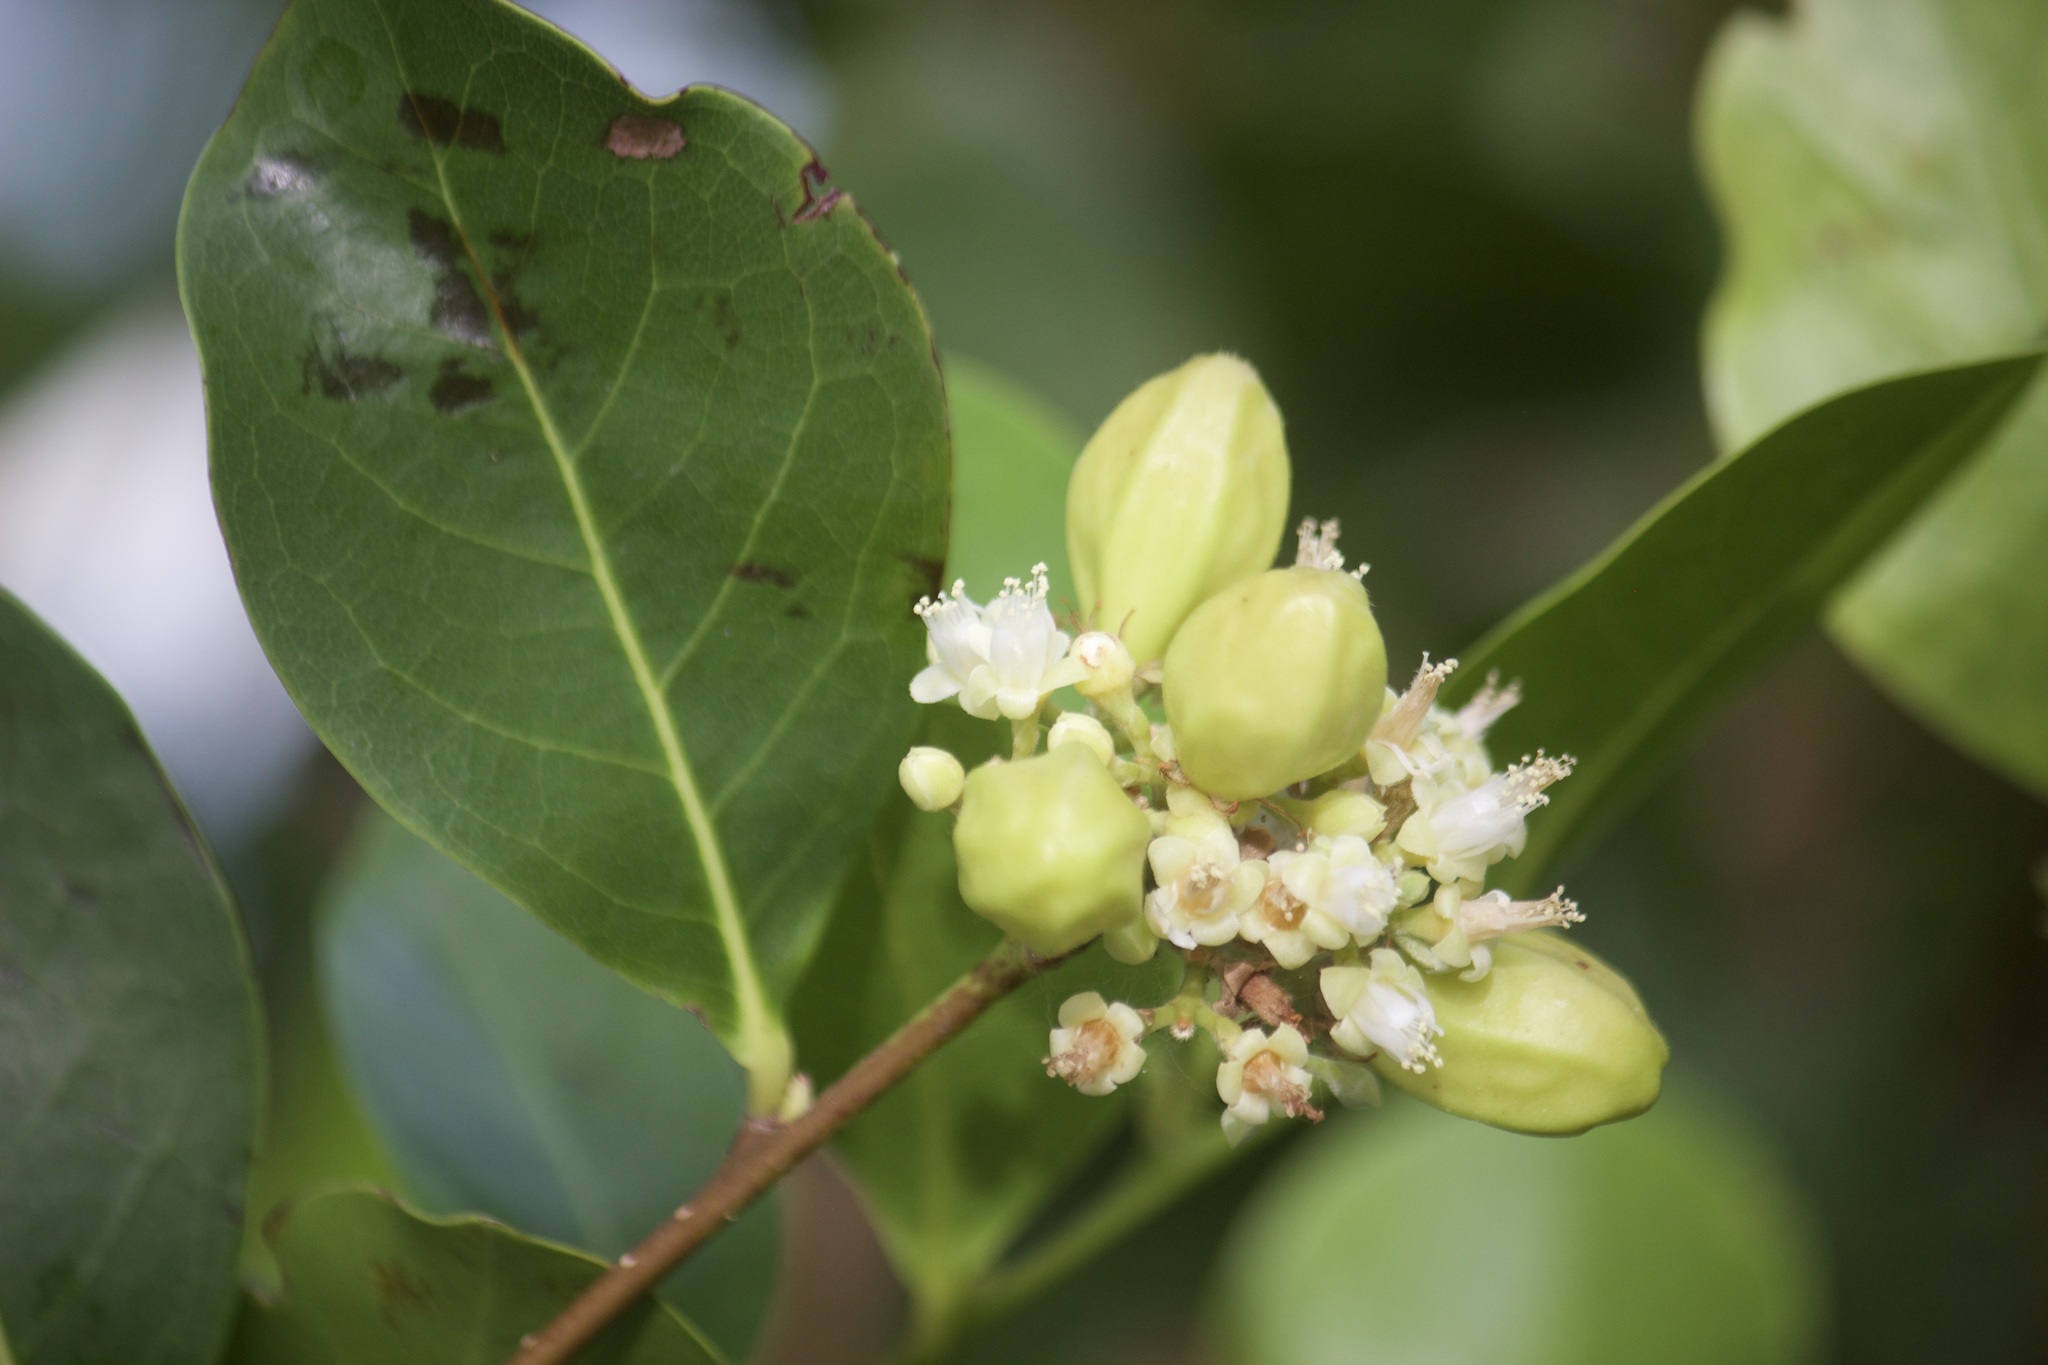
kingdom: Plantae
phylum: Tracheophyta
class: Magnoliopsida
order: Malpighiales
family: Chrysobalanaceae
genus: Chrysobalanus
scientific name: Chrysobalanus icaco
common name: Coco plum
